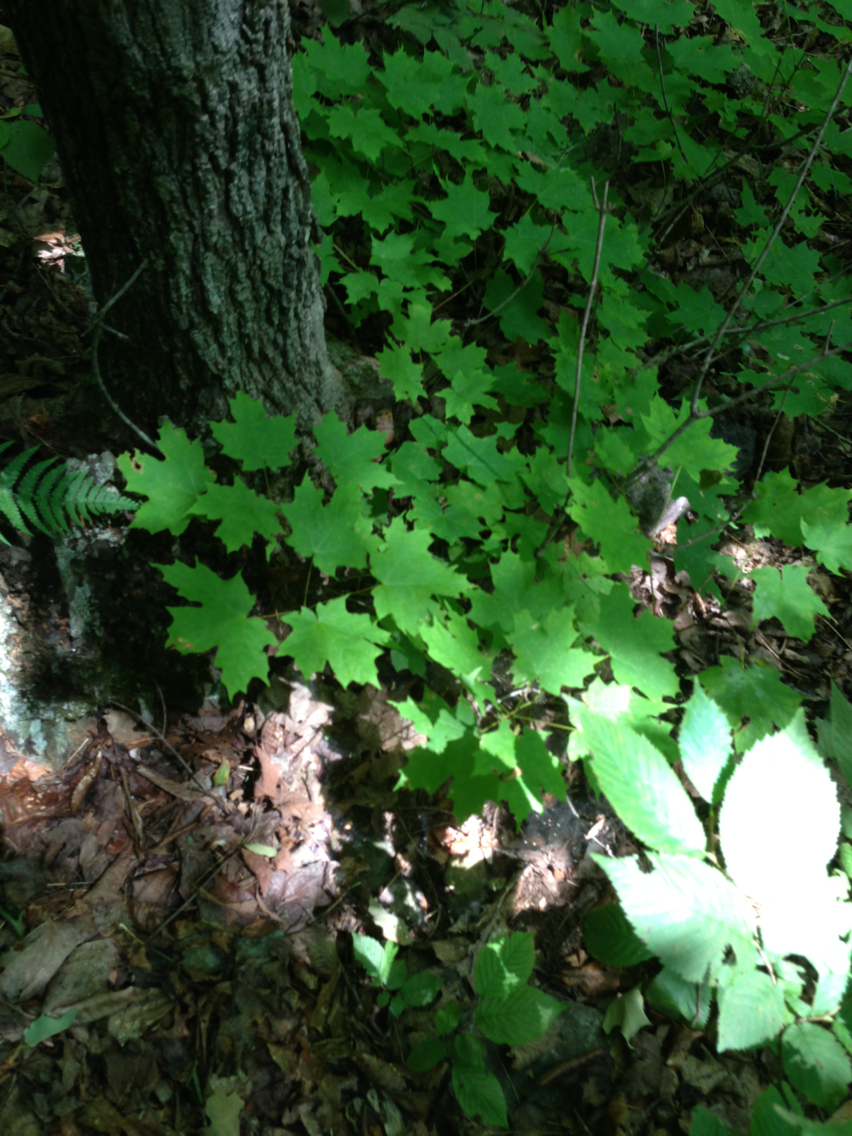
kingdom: Plantae
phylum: Tracheophyta
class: Magnoliopsida
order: Sapindales
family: Sapindaceae
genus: Acer
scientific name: Acer saccharum
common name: Sugar maple
